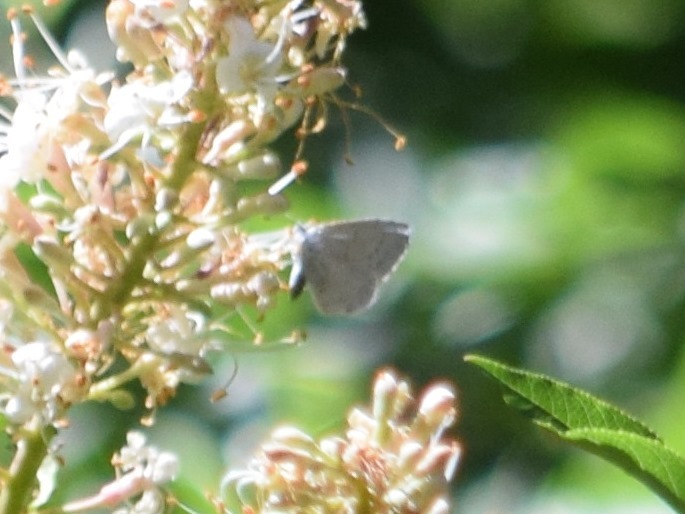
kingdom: Animalia
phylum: Arthropoda
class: Insecta
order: Lepidoptera
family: Lycaenidae
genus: Celastrina
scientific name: Celastrina ladon
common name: Spring azure
